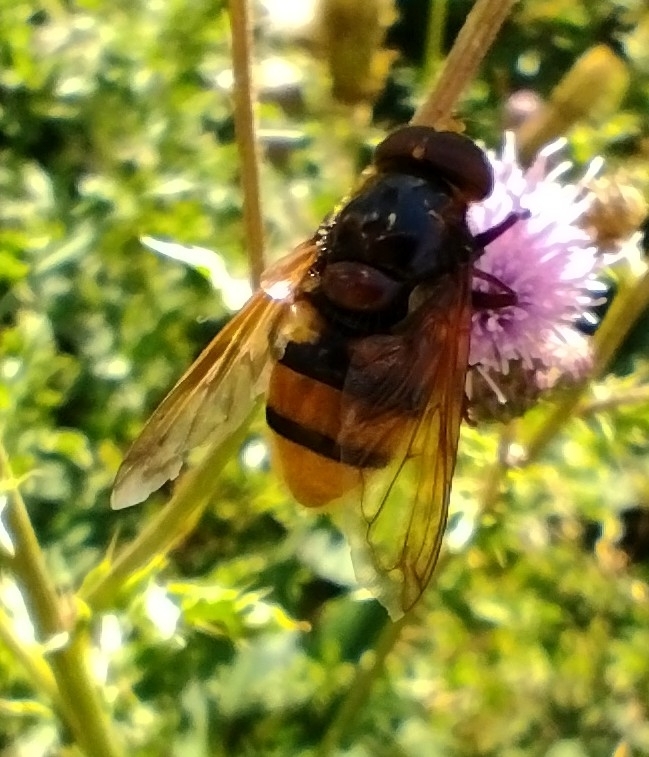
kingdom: Animalia
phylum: Arthropoda
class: Insecta
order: Diptera
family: Syrphidae
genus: Volucella
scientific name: Volucella zonaria
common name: Hornet hoverfly
